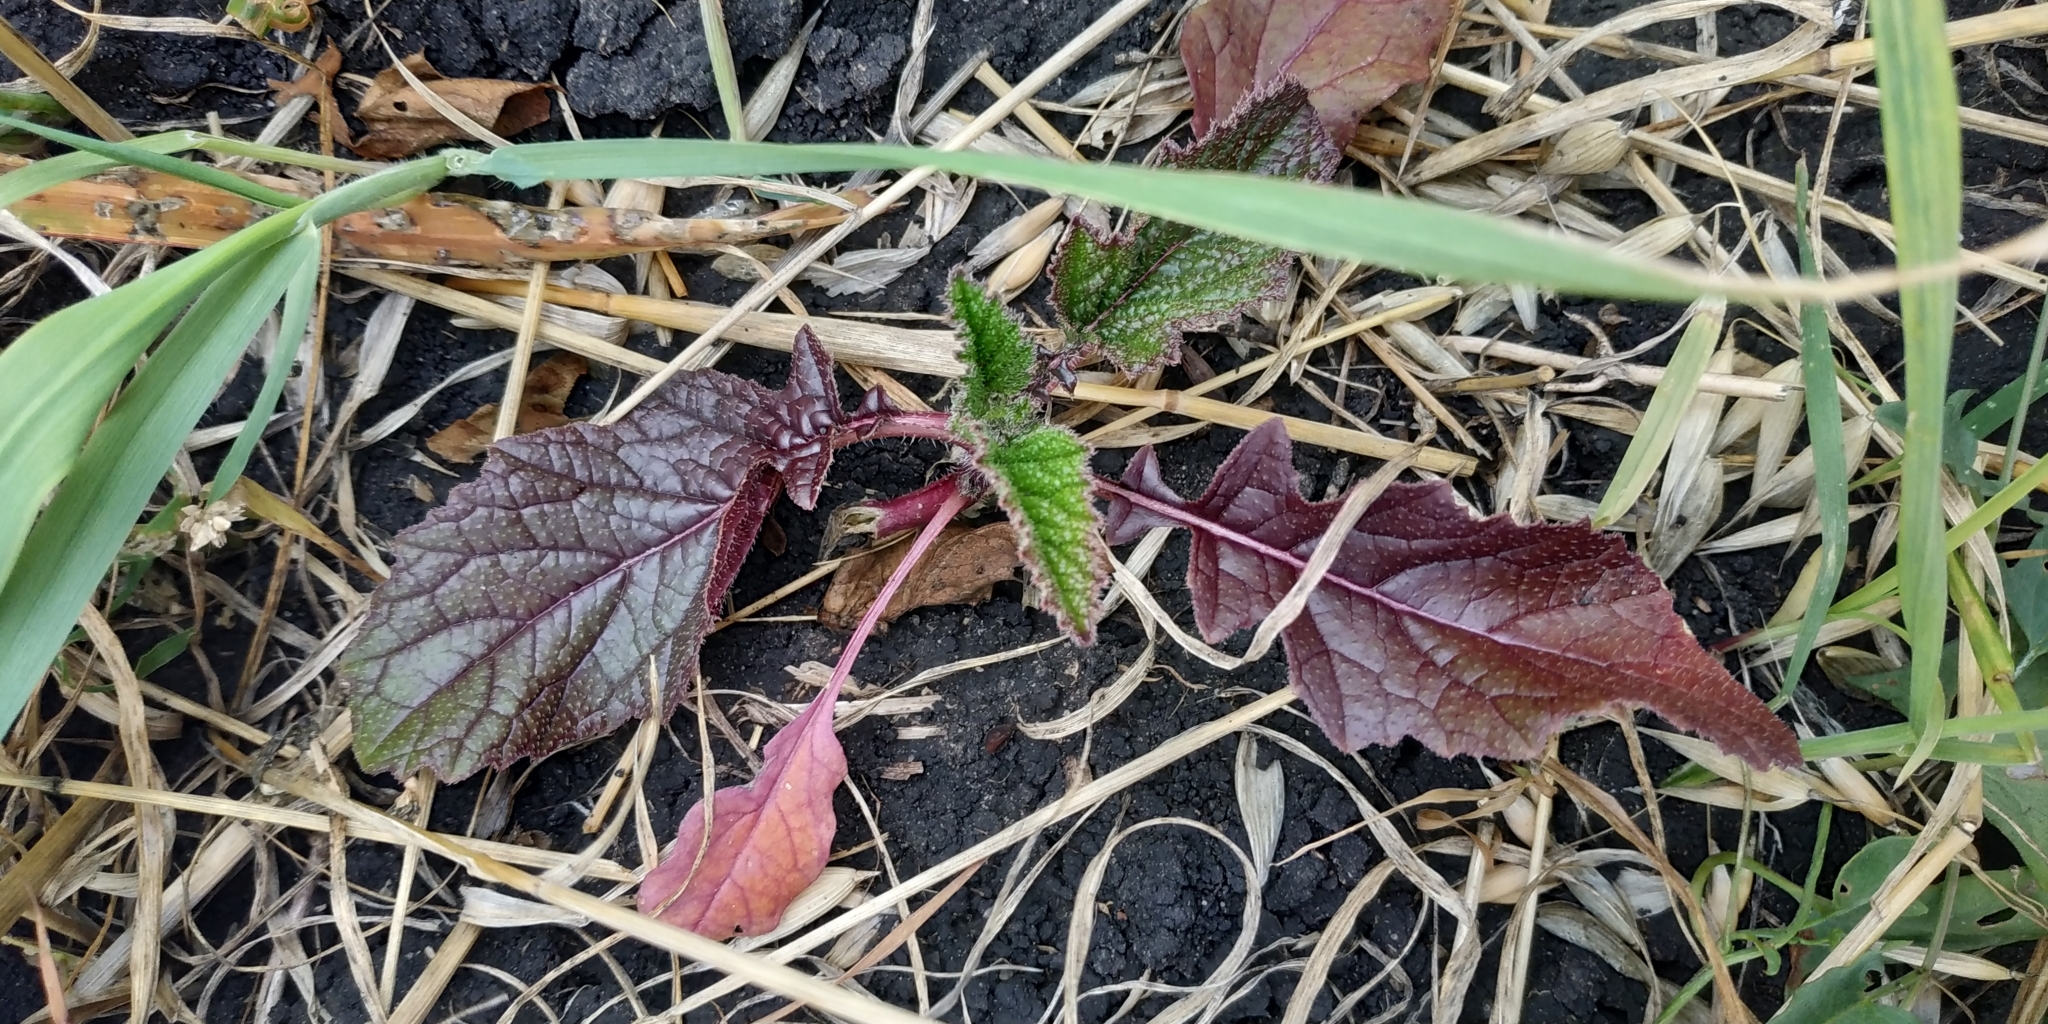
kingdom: Plantae
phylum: Tracheophyta
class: Magnoliopsida
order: Brassicales
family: Brassicaceae
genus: Sinapis
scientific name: Sinapis arvensis
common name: Charlock
